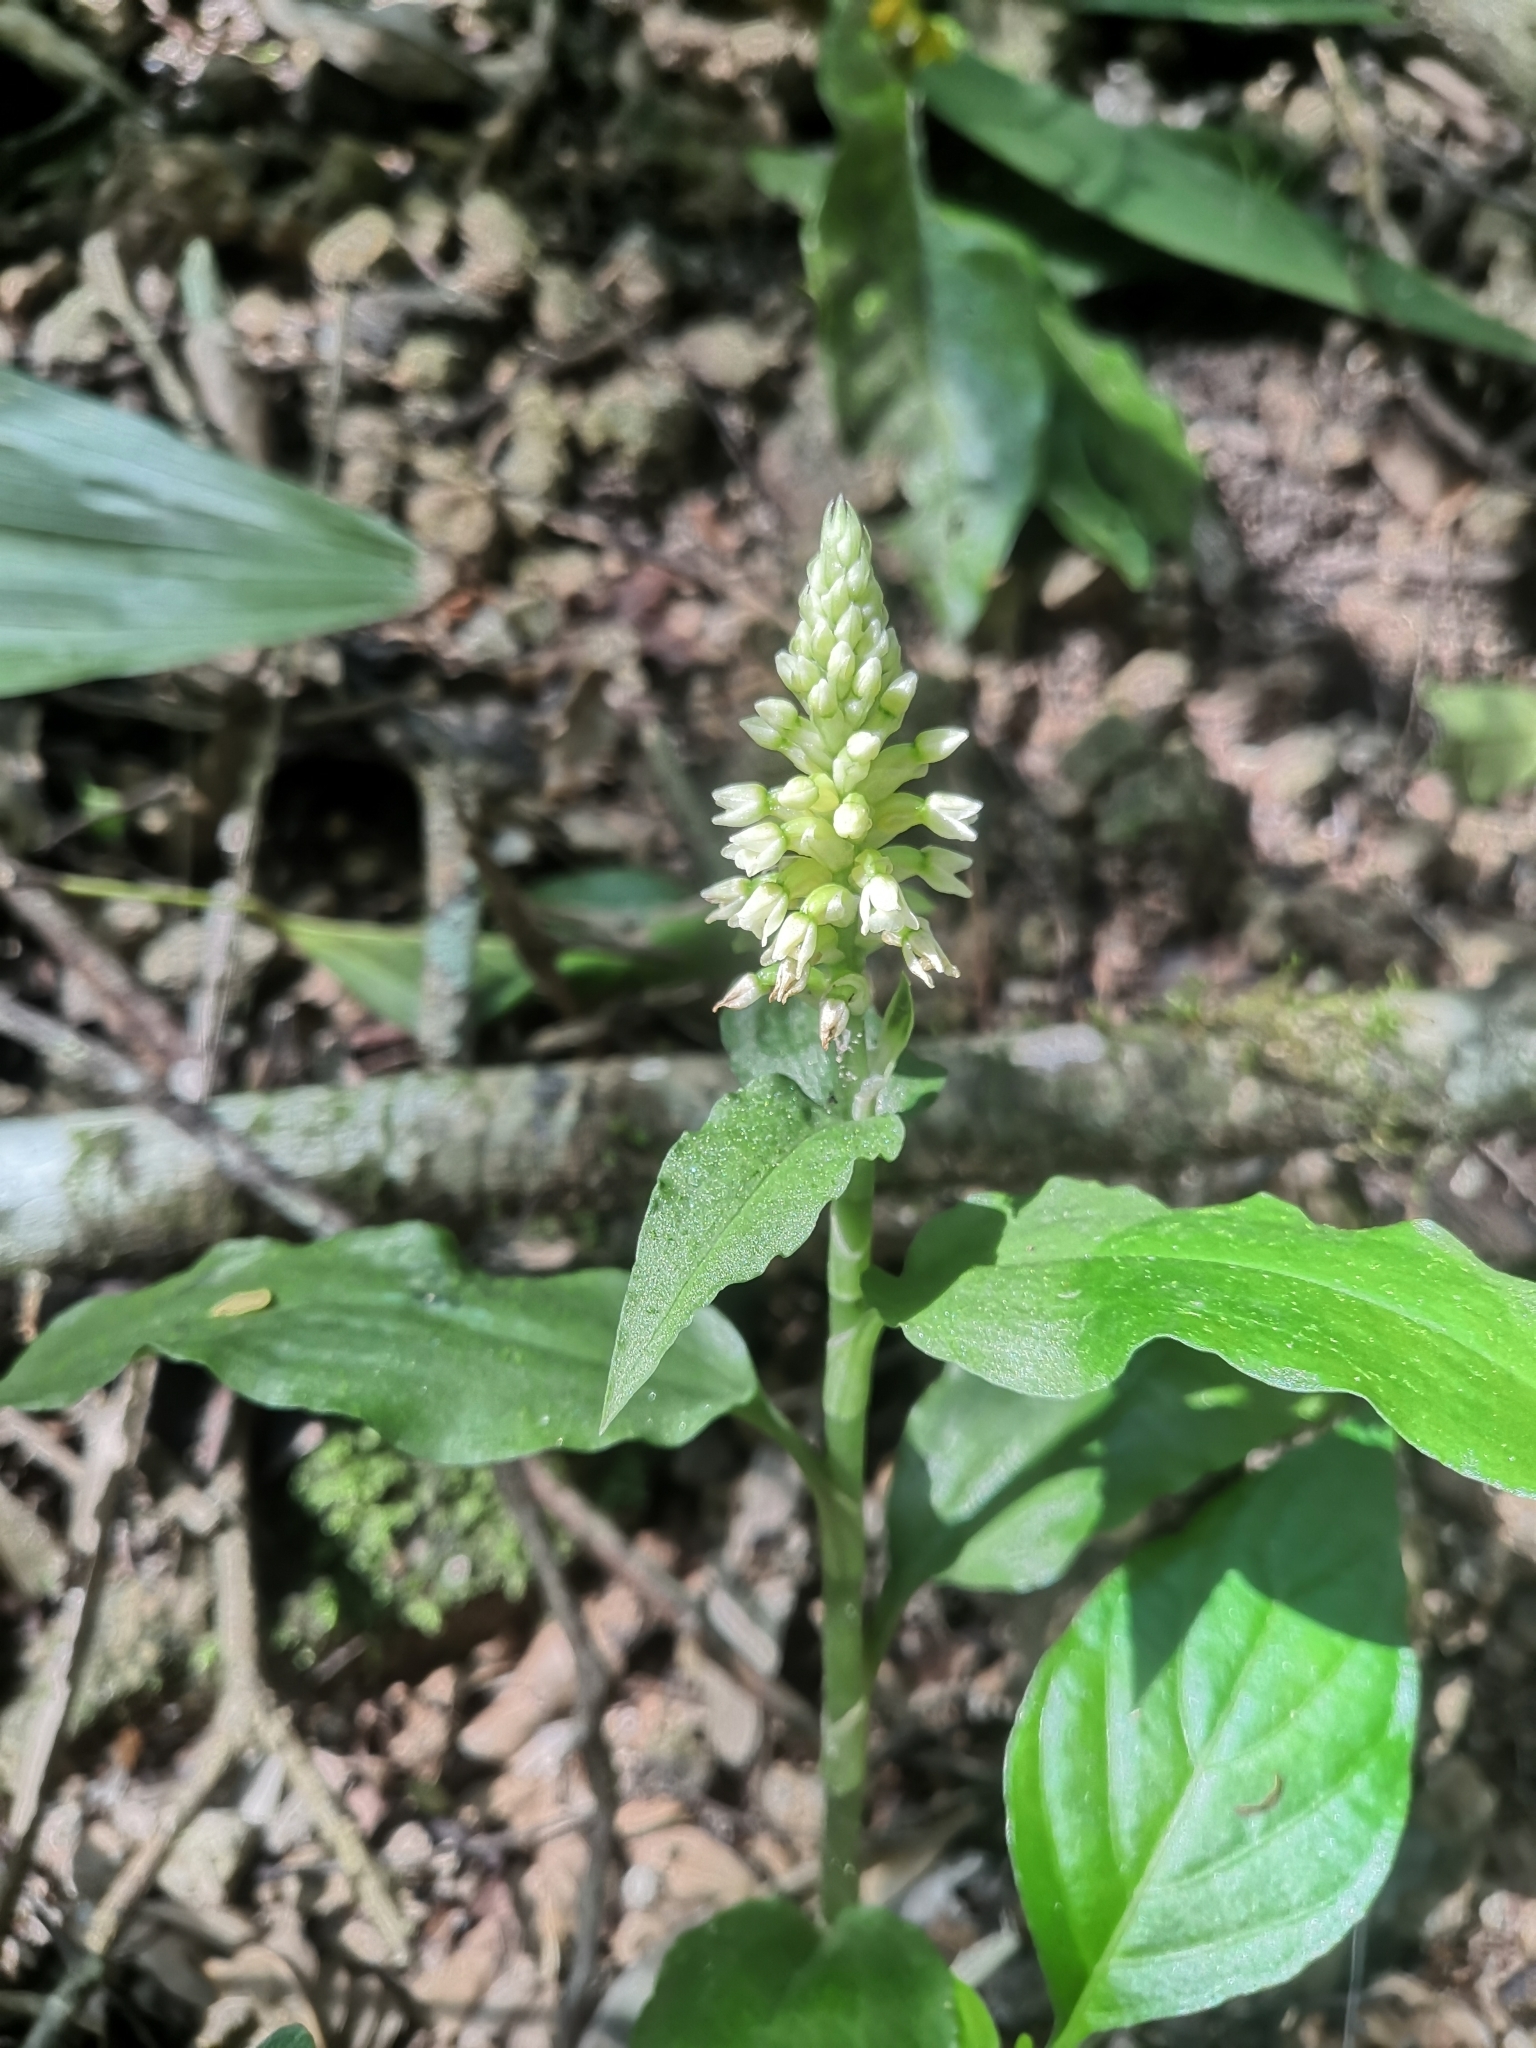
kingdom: Plantae
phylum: Tracheophyta
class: Liliopsida
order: Asparagales
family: Orchidaceae
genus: Aspidogyne
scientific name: Aspidogyne querceticola
